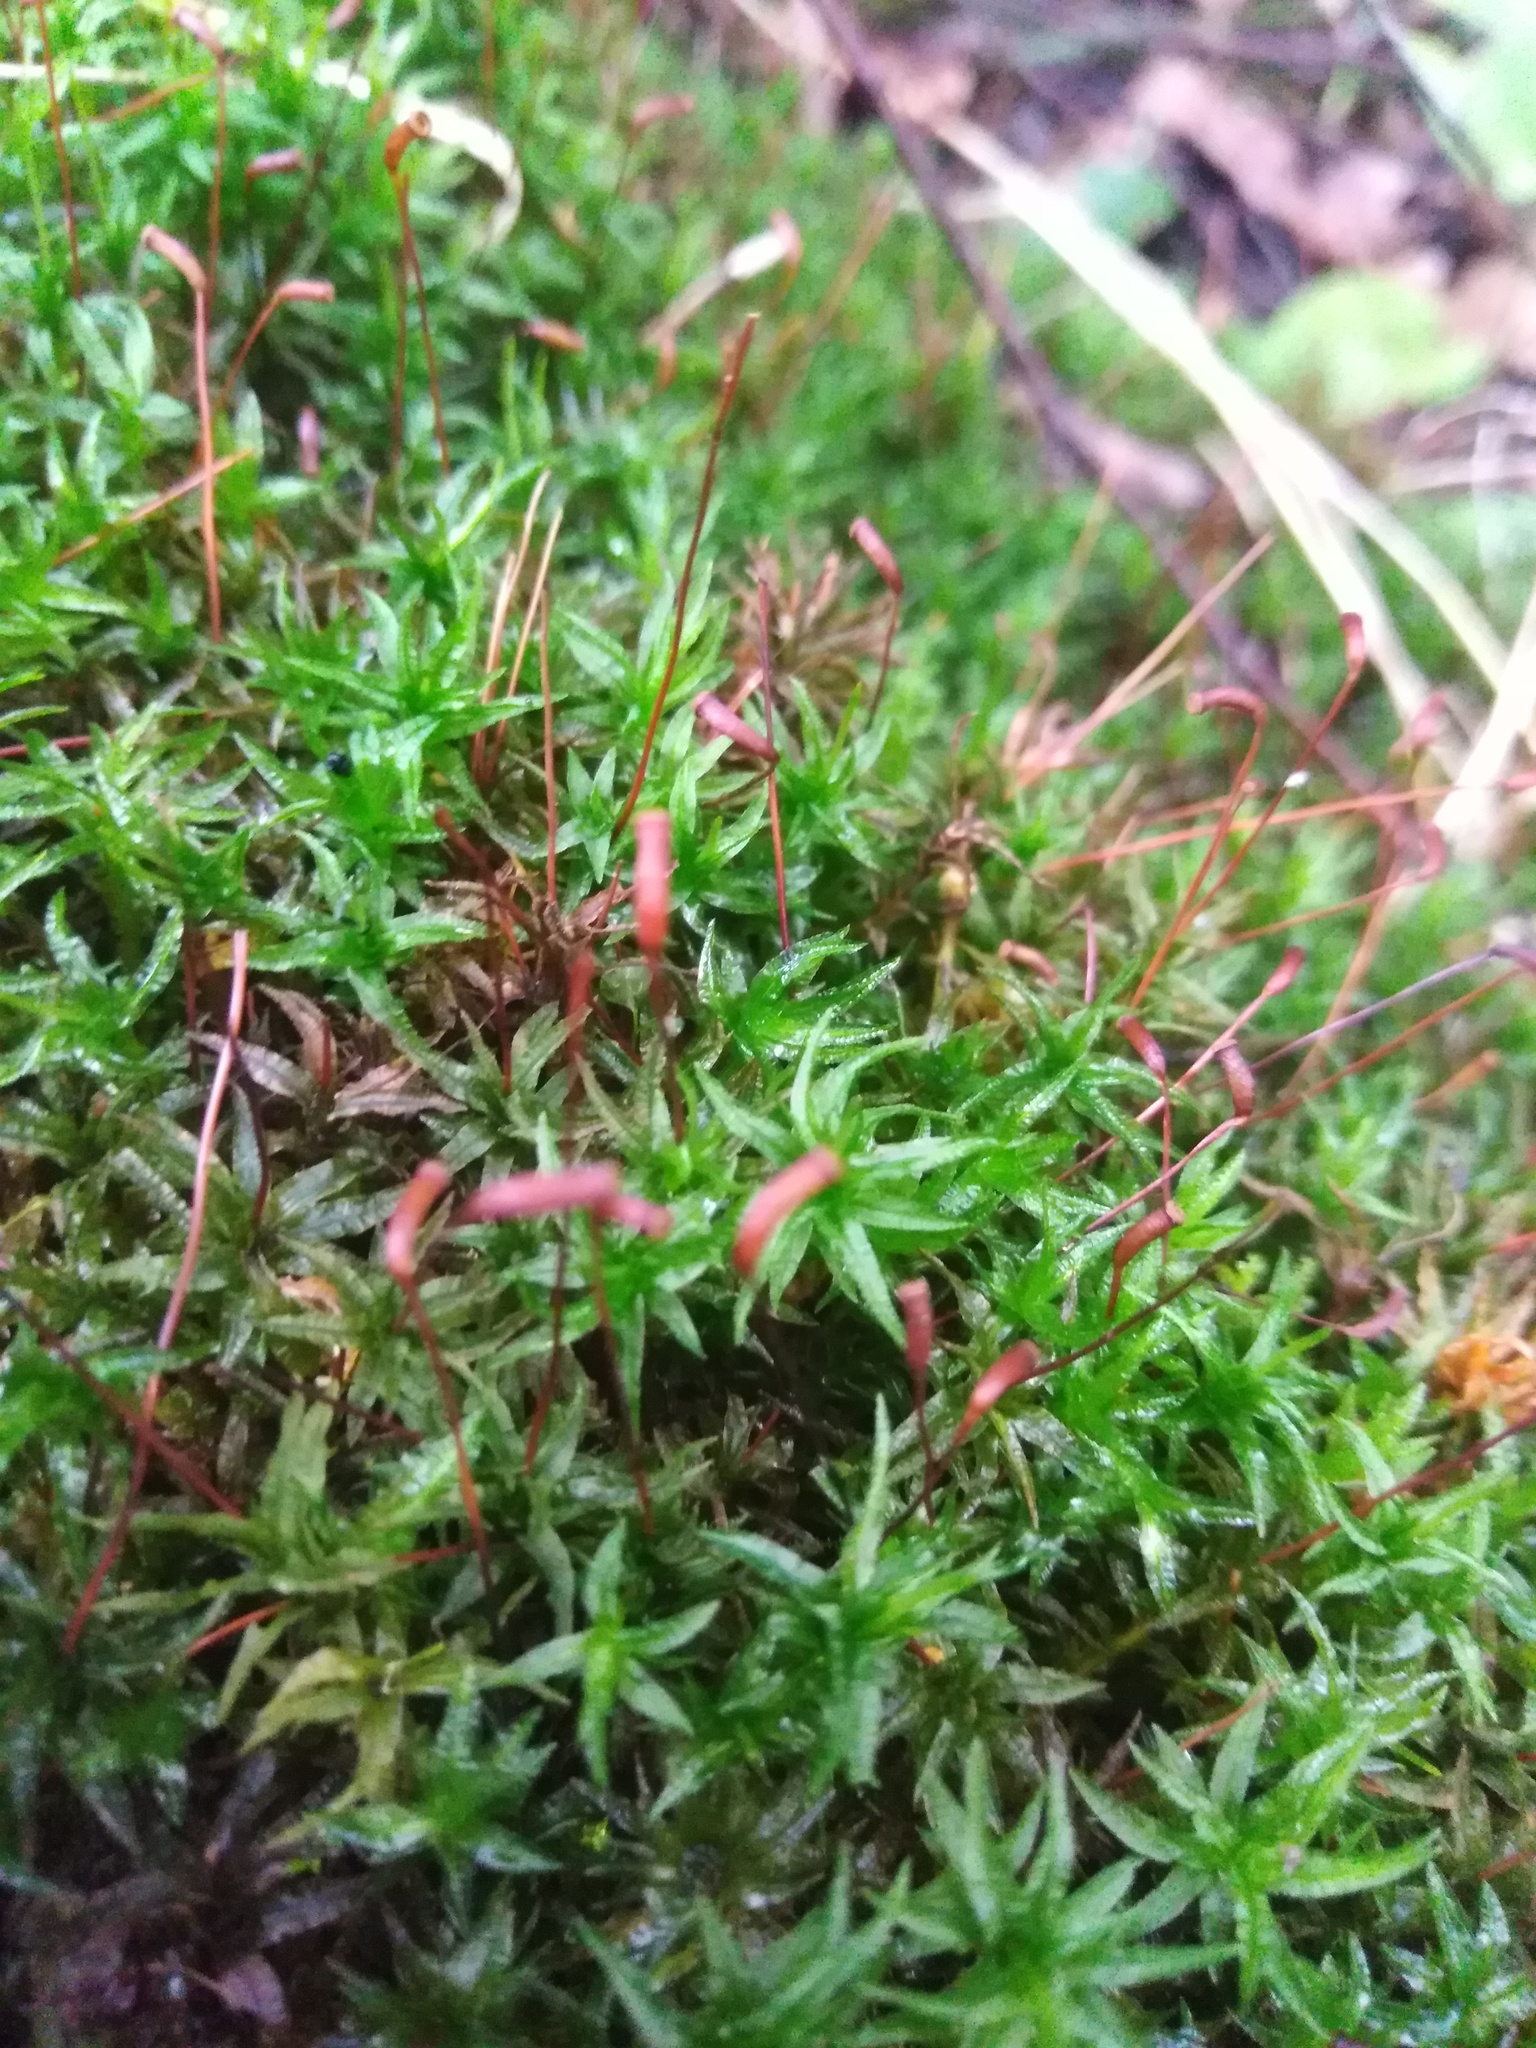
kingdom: Plantae
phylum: Bryophyta
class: Polytrichopsida
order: Polytrichales
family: Polytrichaceae
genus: Atrichum
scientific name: Atrichum undulatum
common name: Common smoothcap
